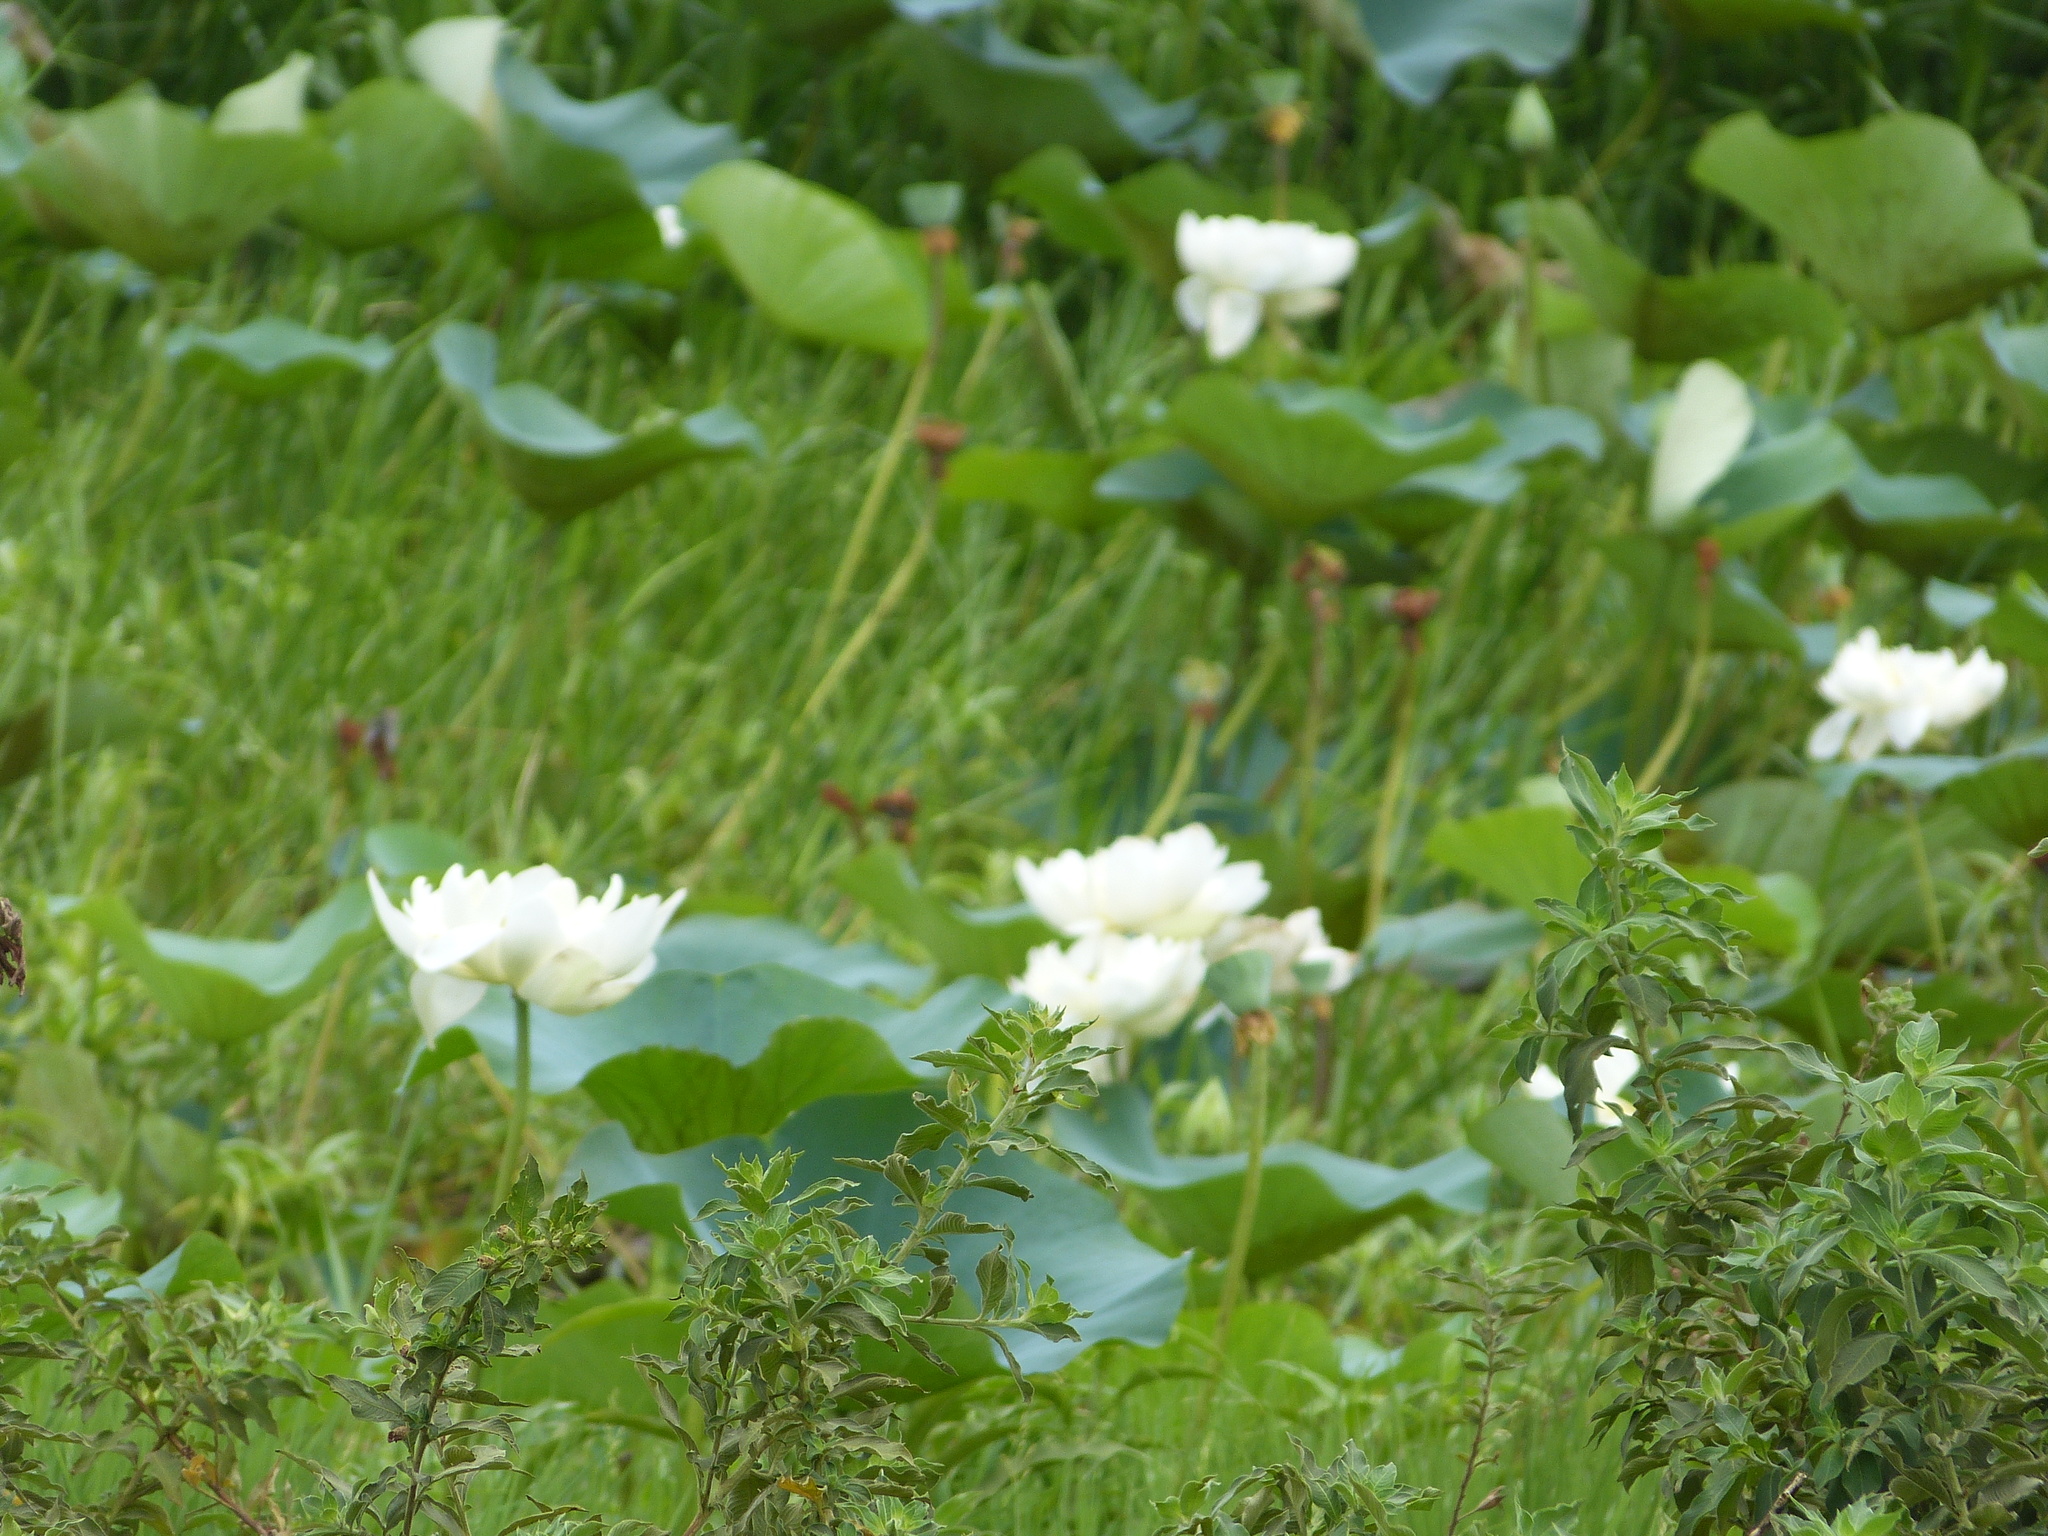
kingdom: Plantae
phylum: Tracheophyta
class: Magnoliopsida
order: Proteales
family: Nelumbonaceae
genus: Nelumbo
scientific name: Nelumbo nucifera
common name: Sacred lotus
